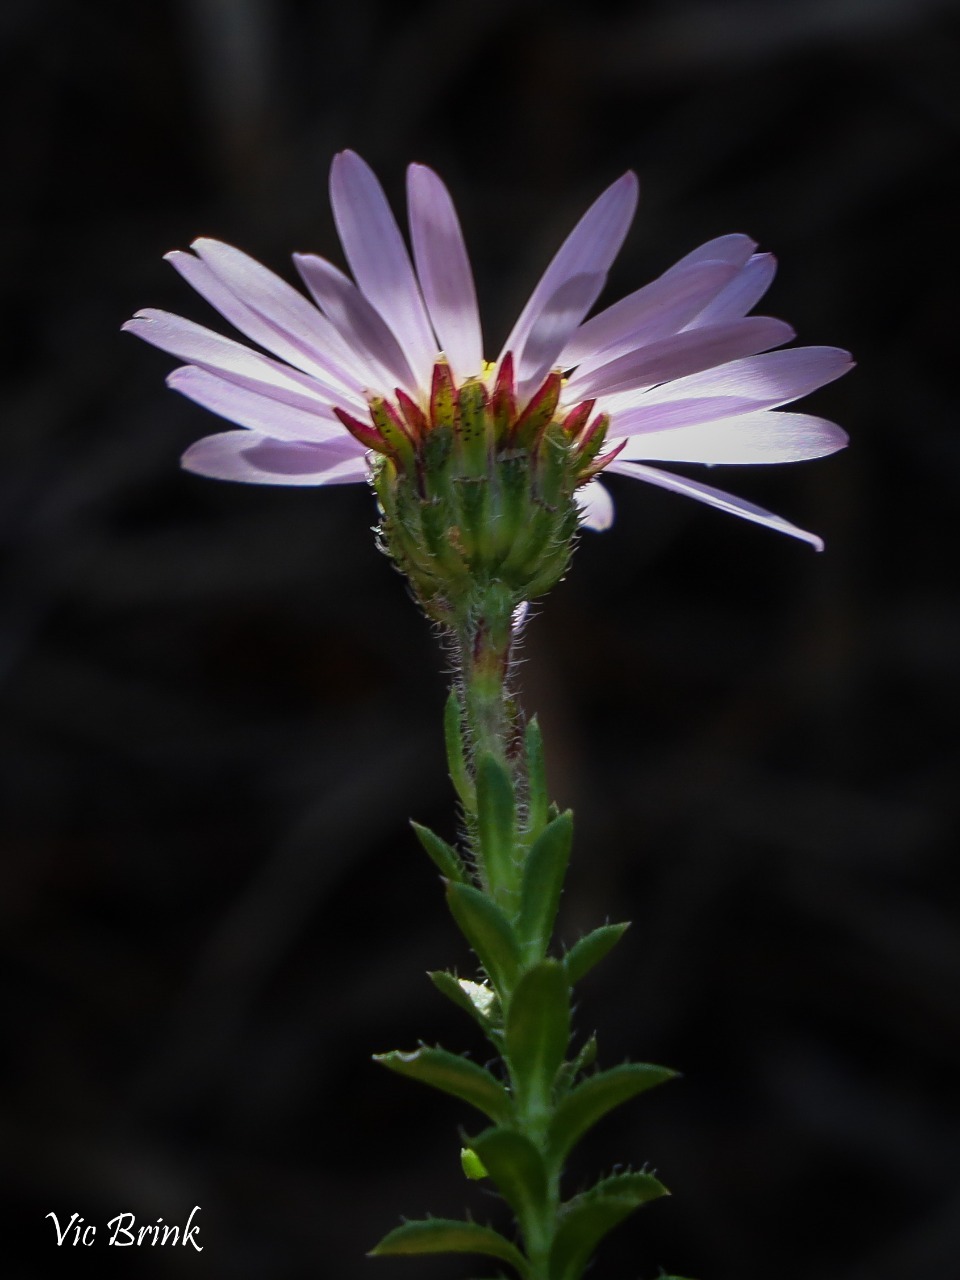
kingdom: Plantae
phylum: Tracheophyta
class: Magnoliopsida
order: Asterales
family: Asteraceae
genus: Felicia
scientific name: Felicia echinata
